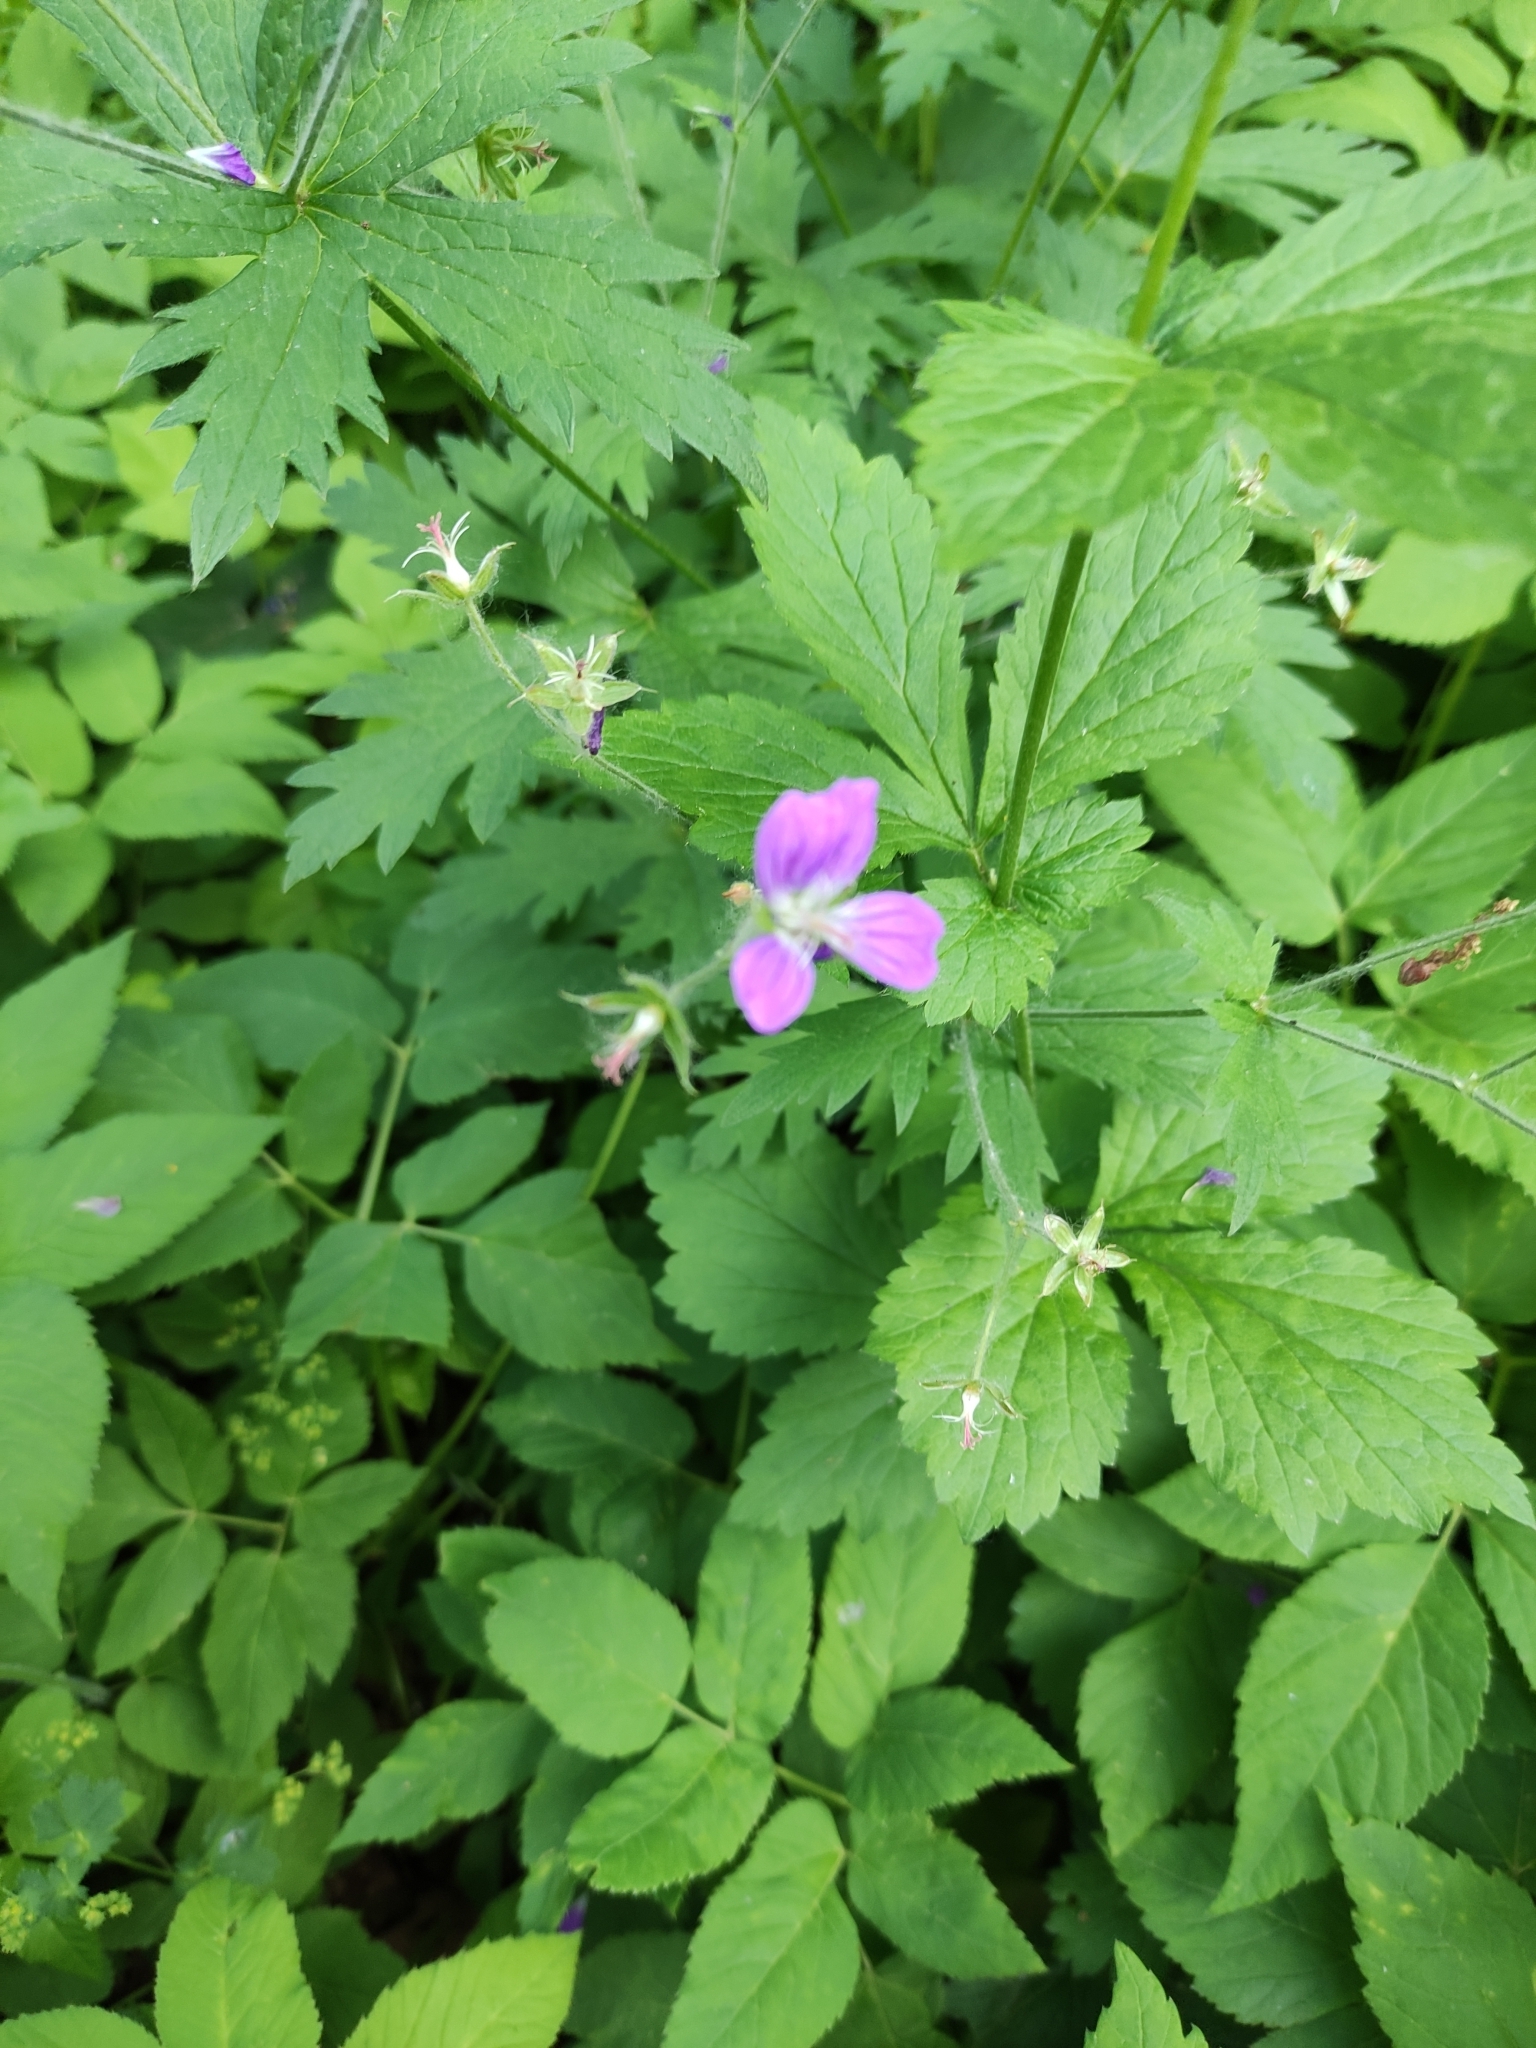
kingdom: Plantae
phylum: Tracheophyta
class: Magnoliopsida
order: Geraniales
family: Geraniaceae
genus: Geranium
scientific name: Geranium sylvaticum
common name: Wood crane's-bill
